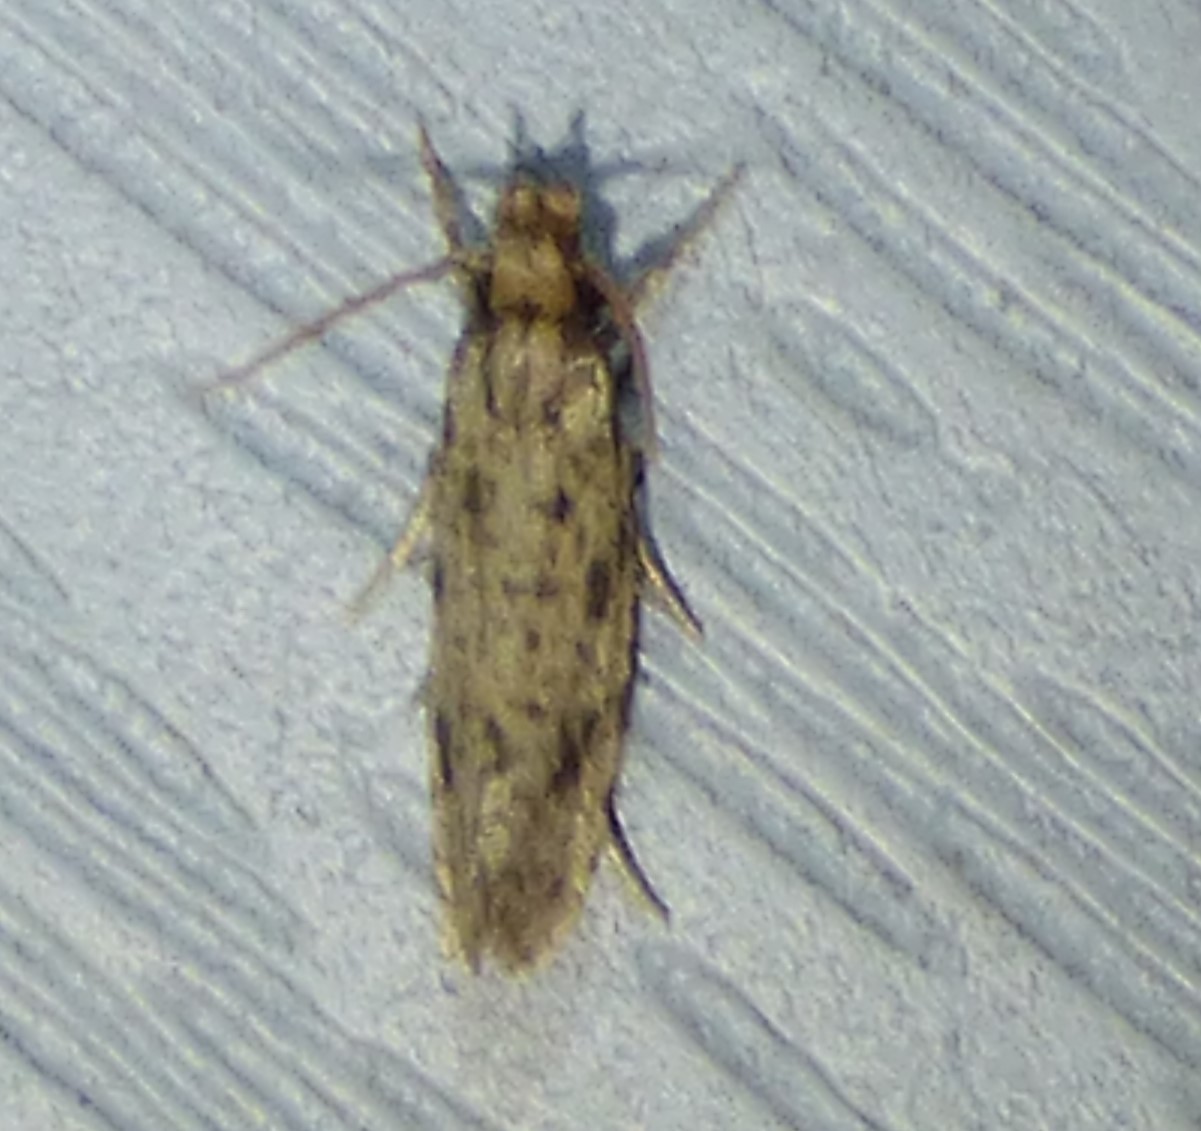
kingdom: Animalia
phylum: Arthropoda
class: Insecta
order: Lepidoptera
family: Tineidae
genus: Amydria
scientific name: Amydria effrentella
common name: Brown-blotched amydria moth
